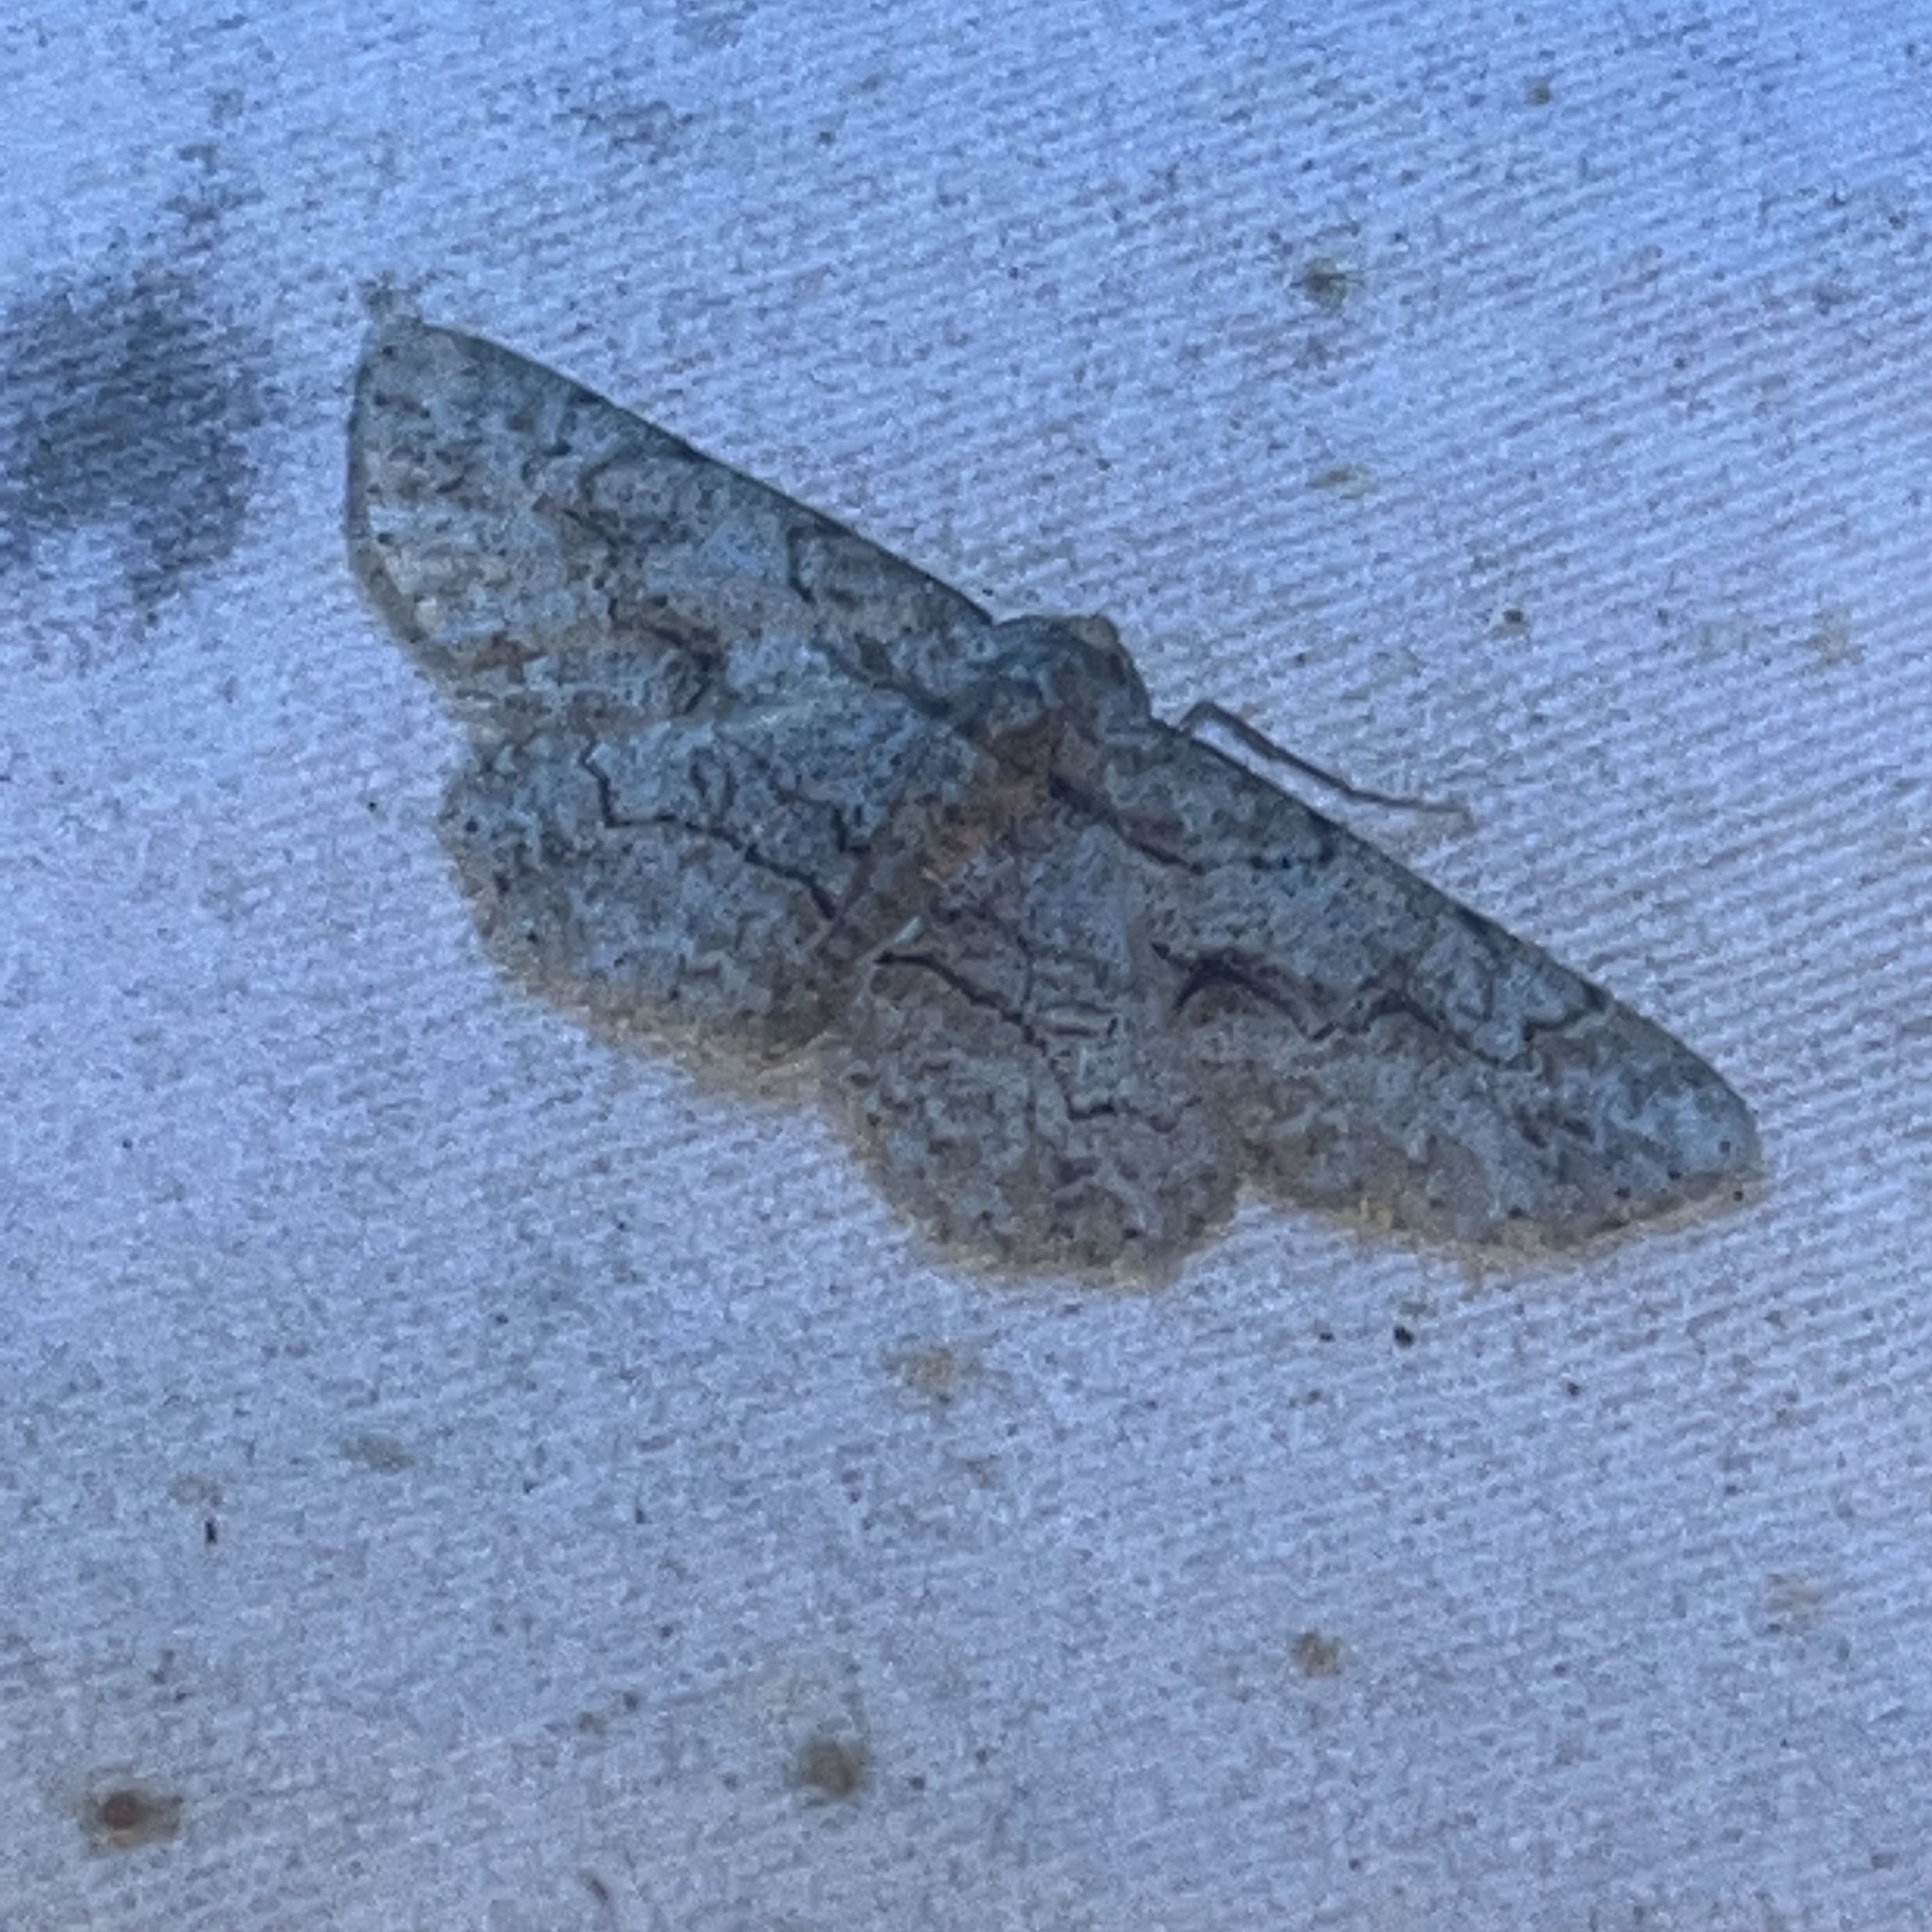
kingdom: Animalia
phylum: Arthropoda
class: Insecta
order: Lepidoptera
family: Geometridae
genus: Iridopsis
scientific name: Iridopsis defectaria
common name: Brown-shaded gray
